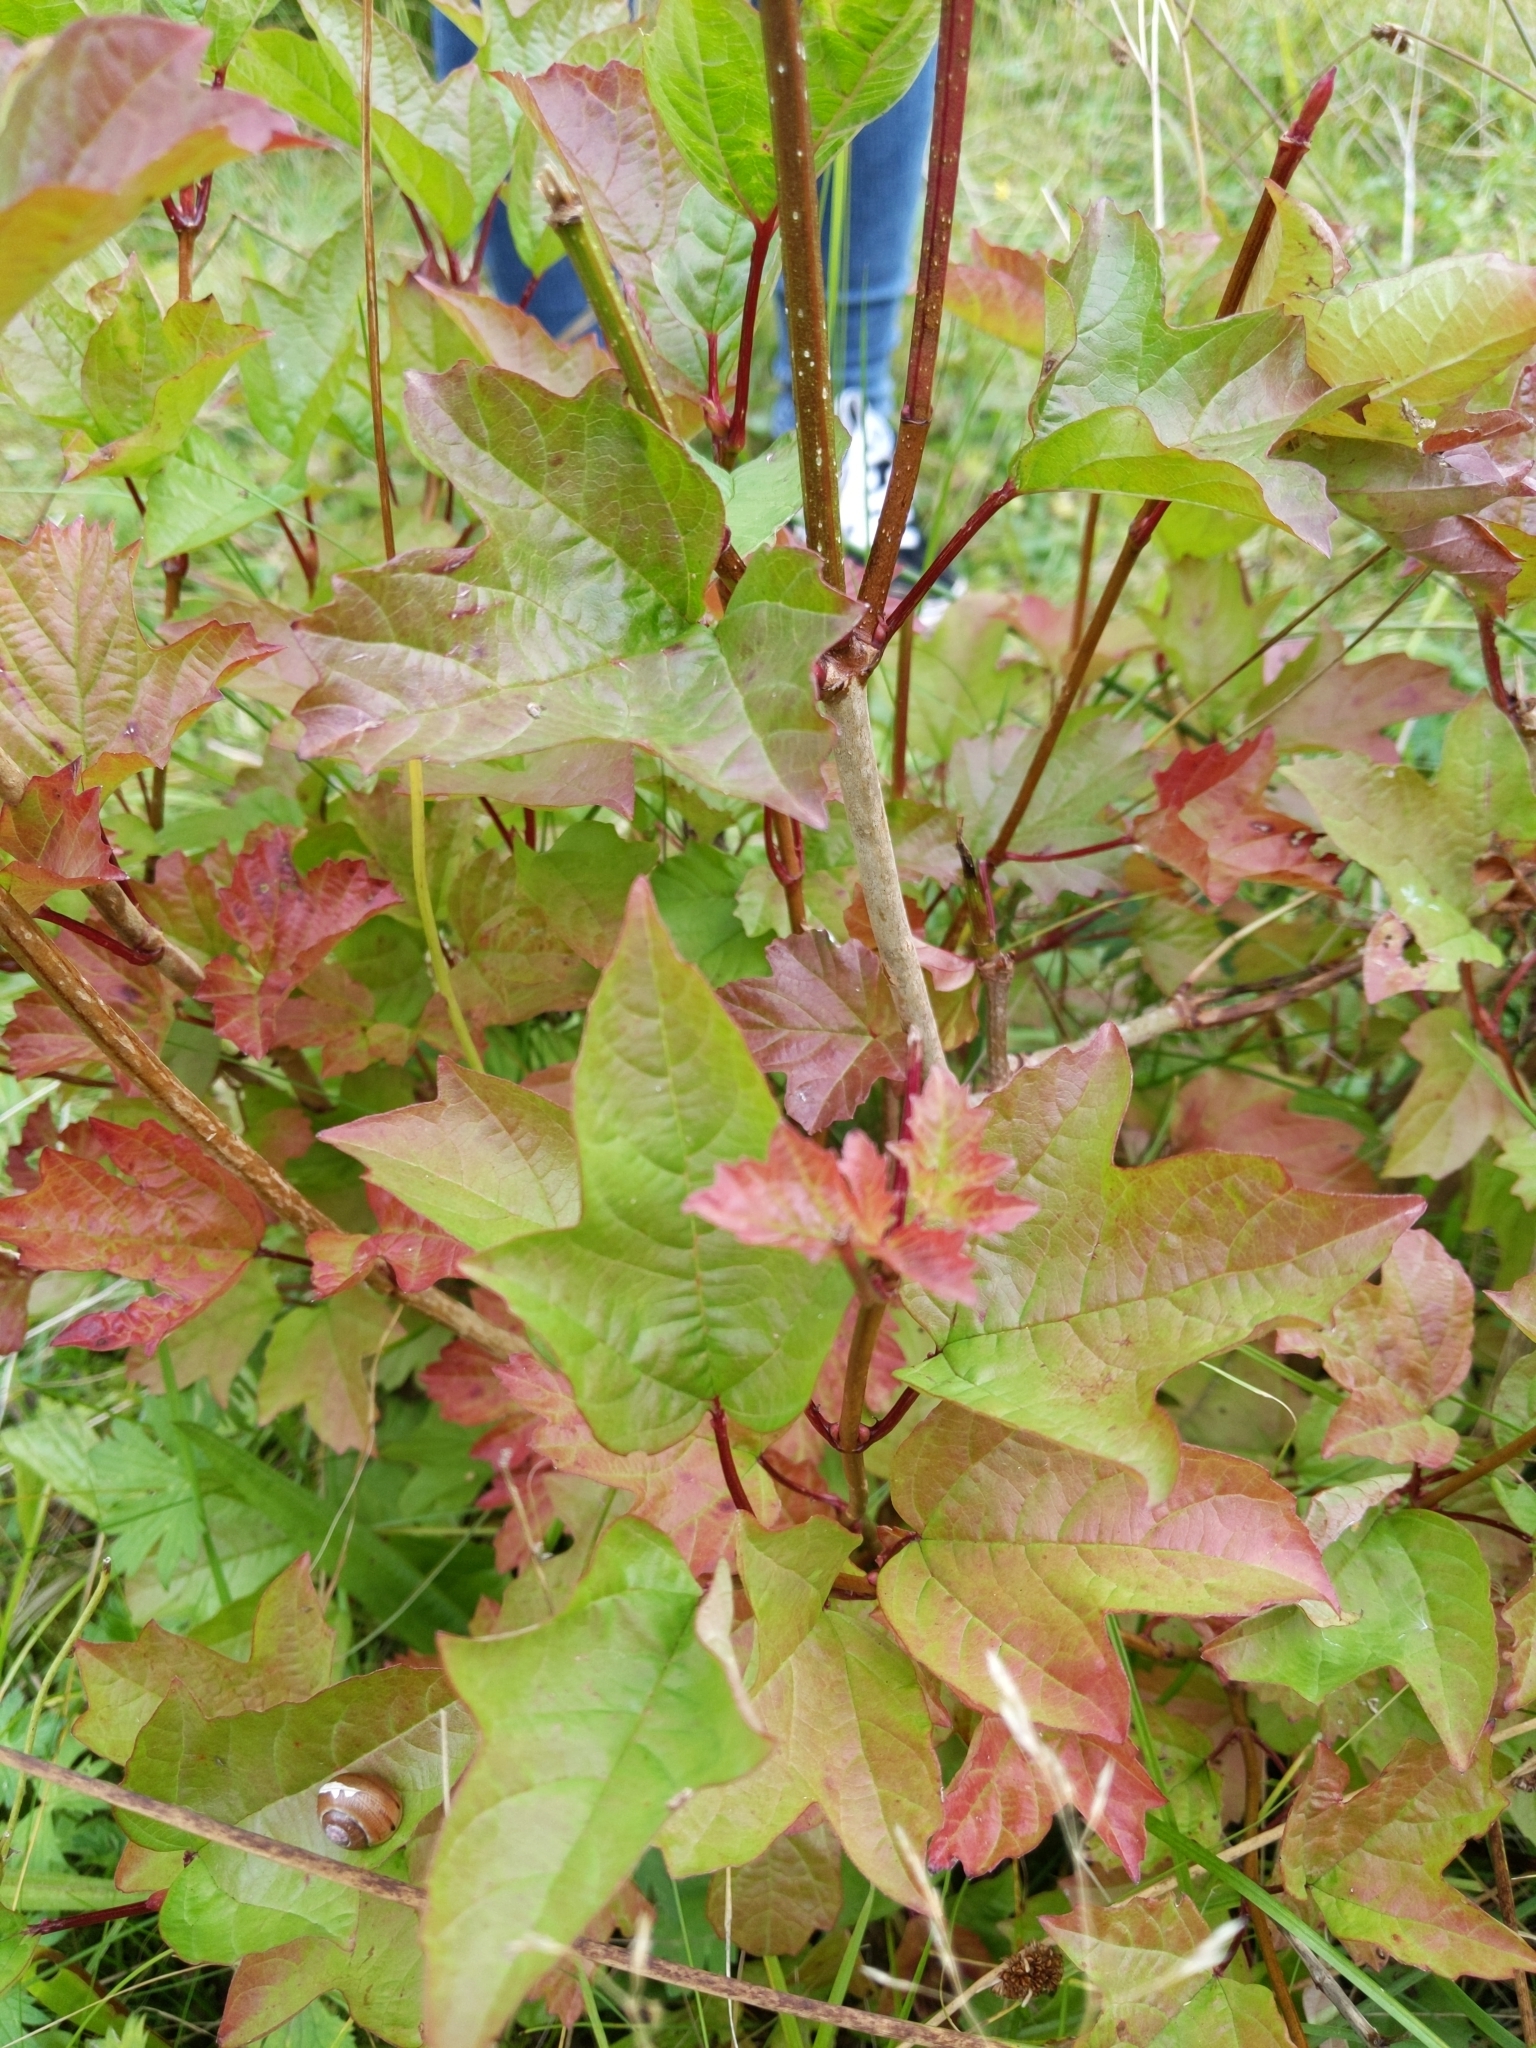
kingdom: Plantae
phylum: Tracheophyta
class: Magnoliopsida
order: Dipsacales
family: Viburnaceae
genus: Viburnum
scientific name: Viburnum opulus
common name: Guelder-rose
